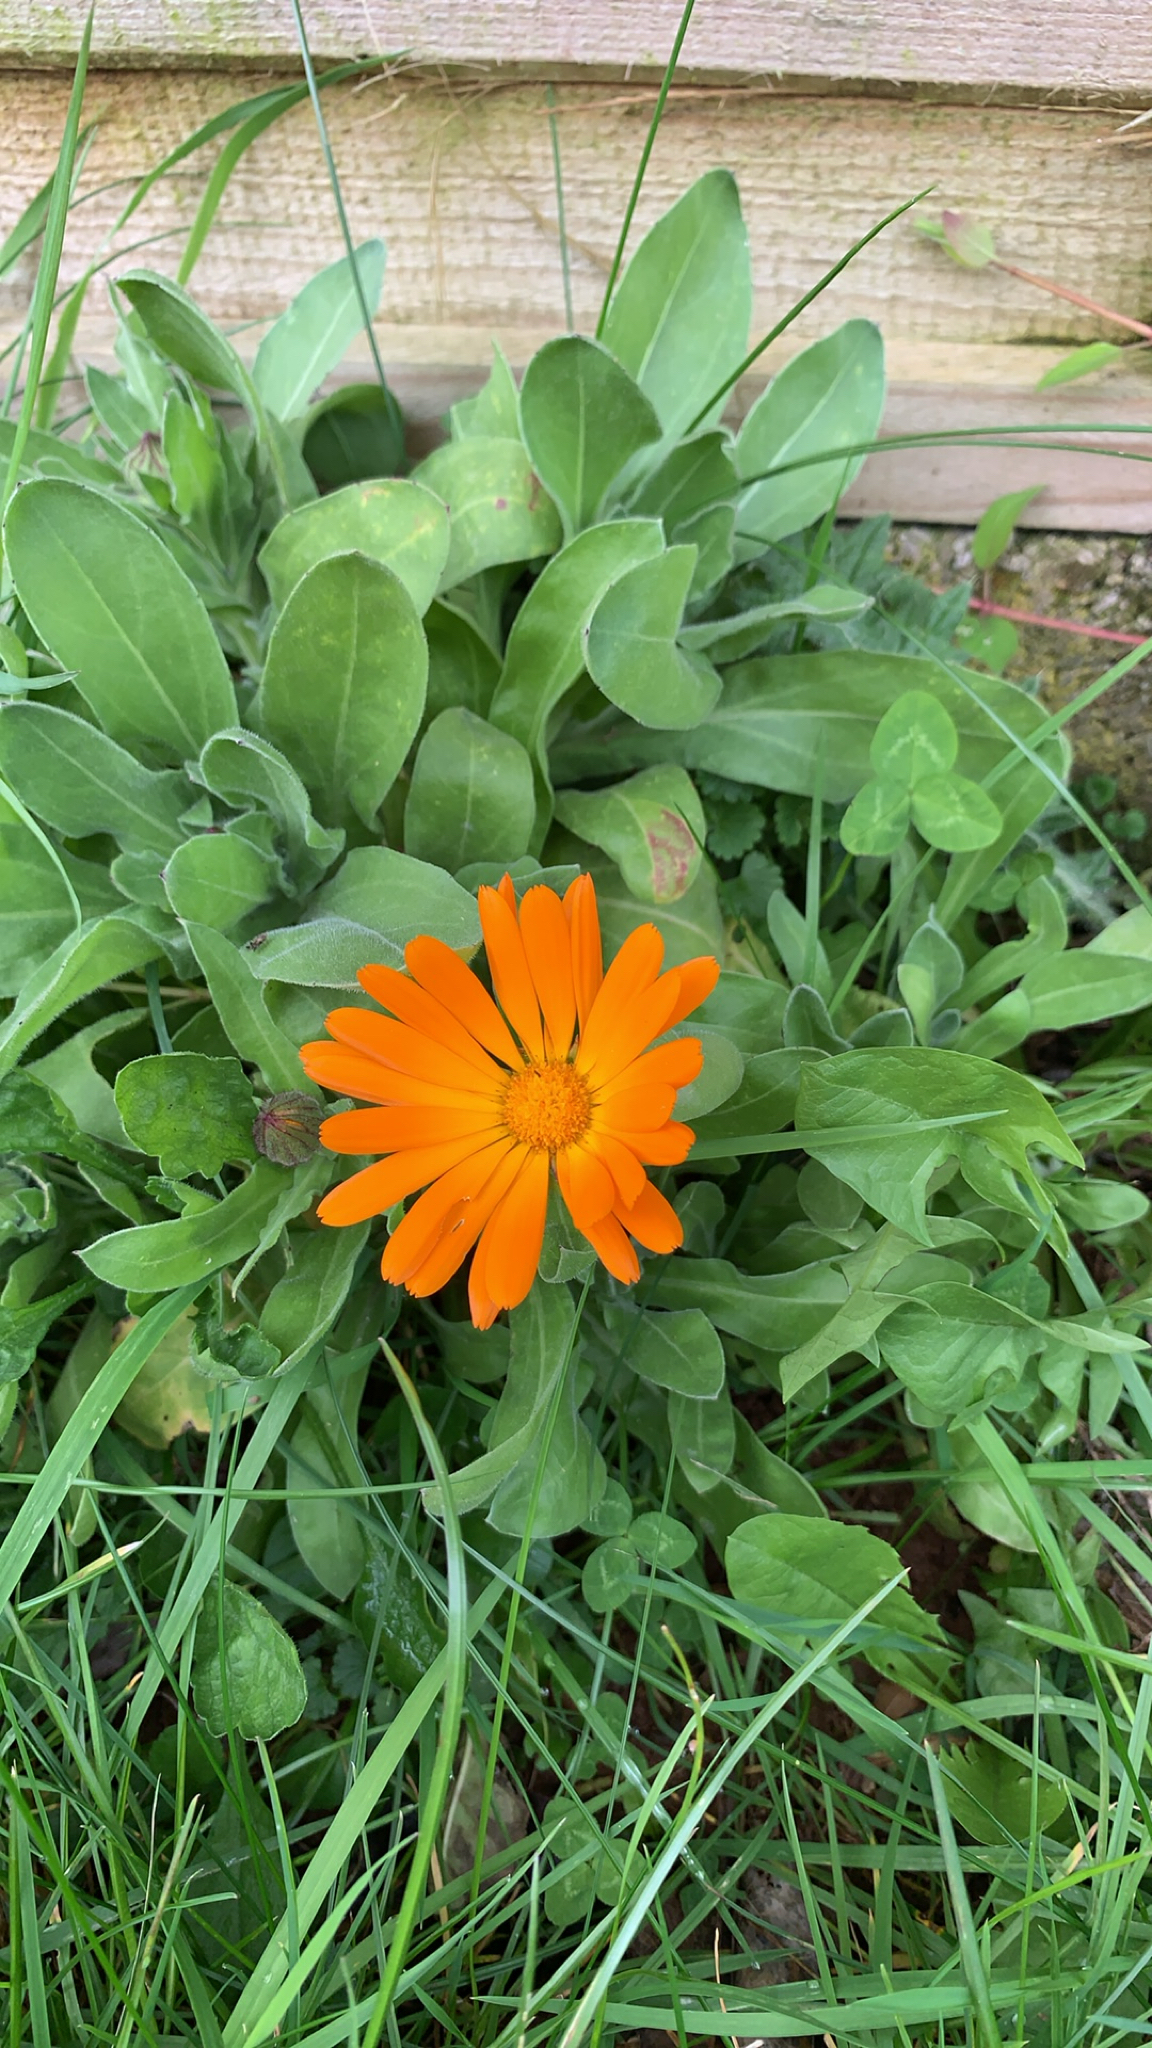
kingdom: Plantae
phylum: Tracheophyta
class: Magnoliopsida
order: Asterales
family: Asteraceae
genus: Calendula
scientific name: Calendula officinalis
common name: Pot marigold
